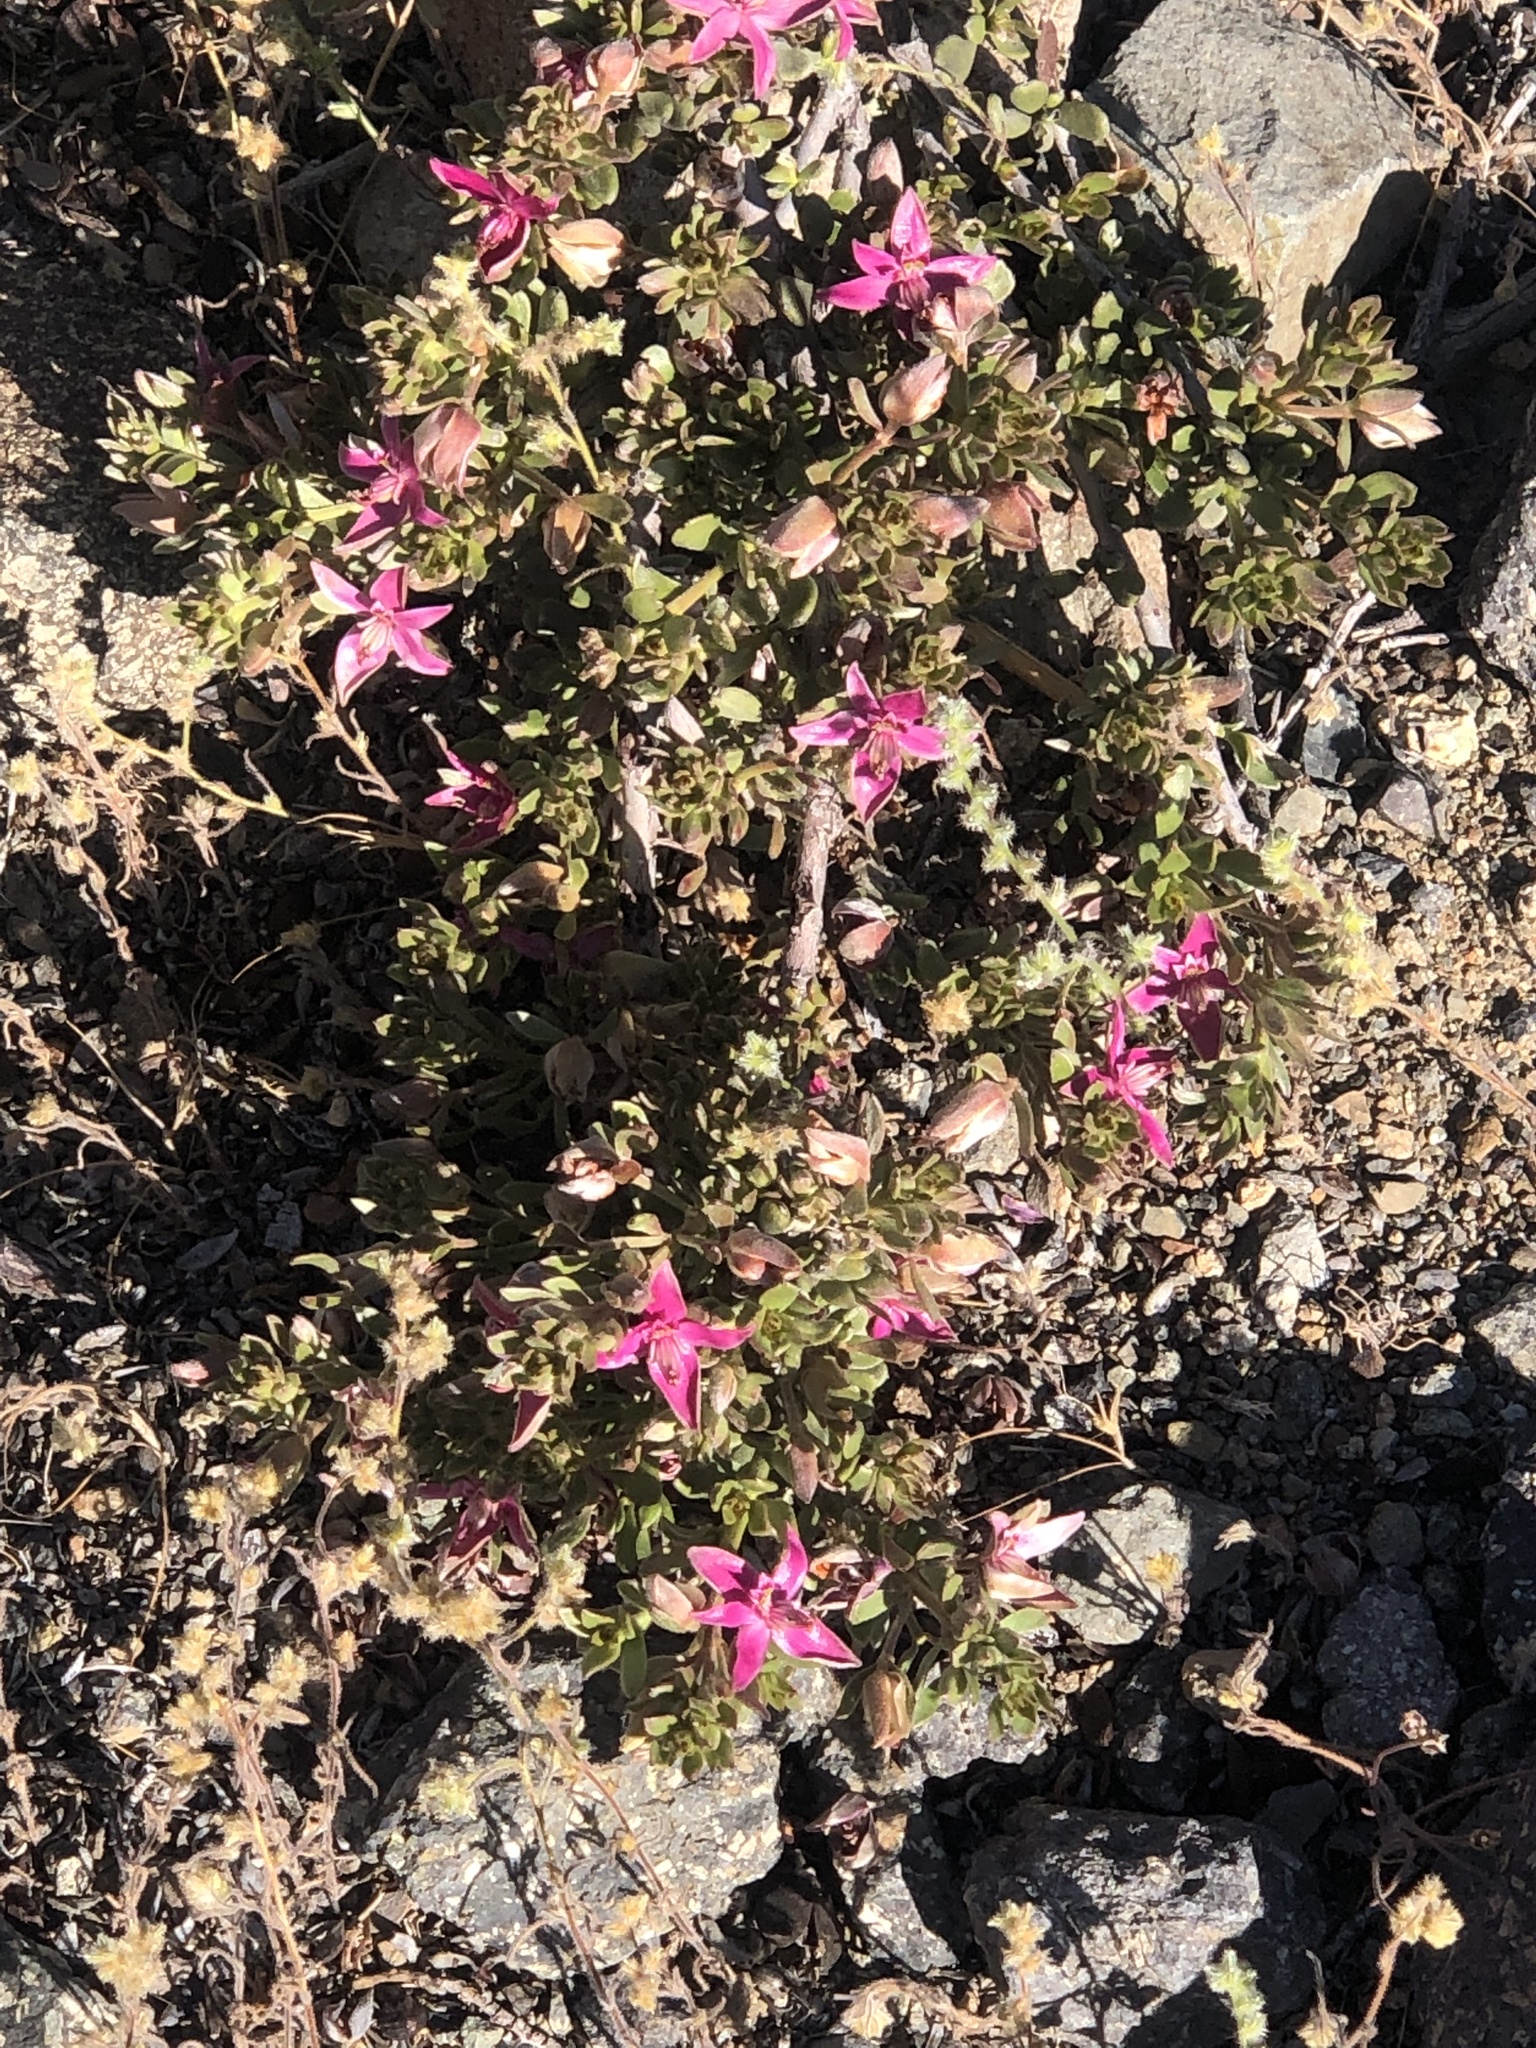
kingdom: Plantae
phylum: Tracheophyta
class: Magnoliopsida
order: Zygophyllales
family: Krameriaceae
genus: Krameria
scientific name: Krameria cistoidea
